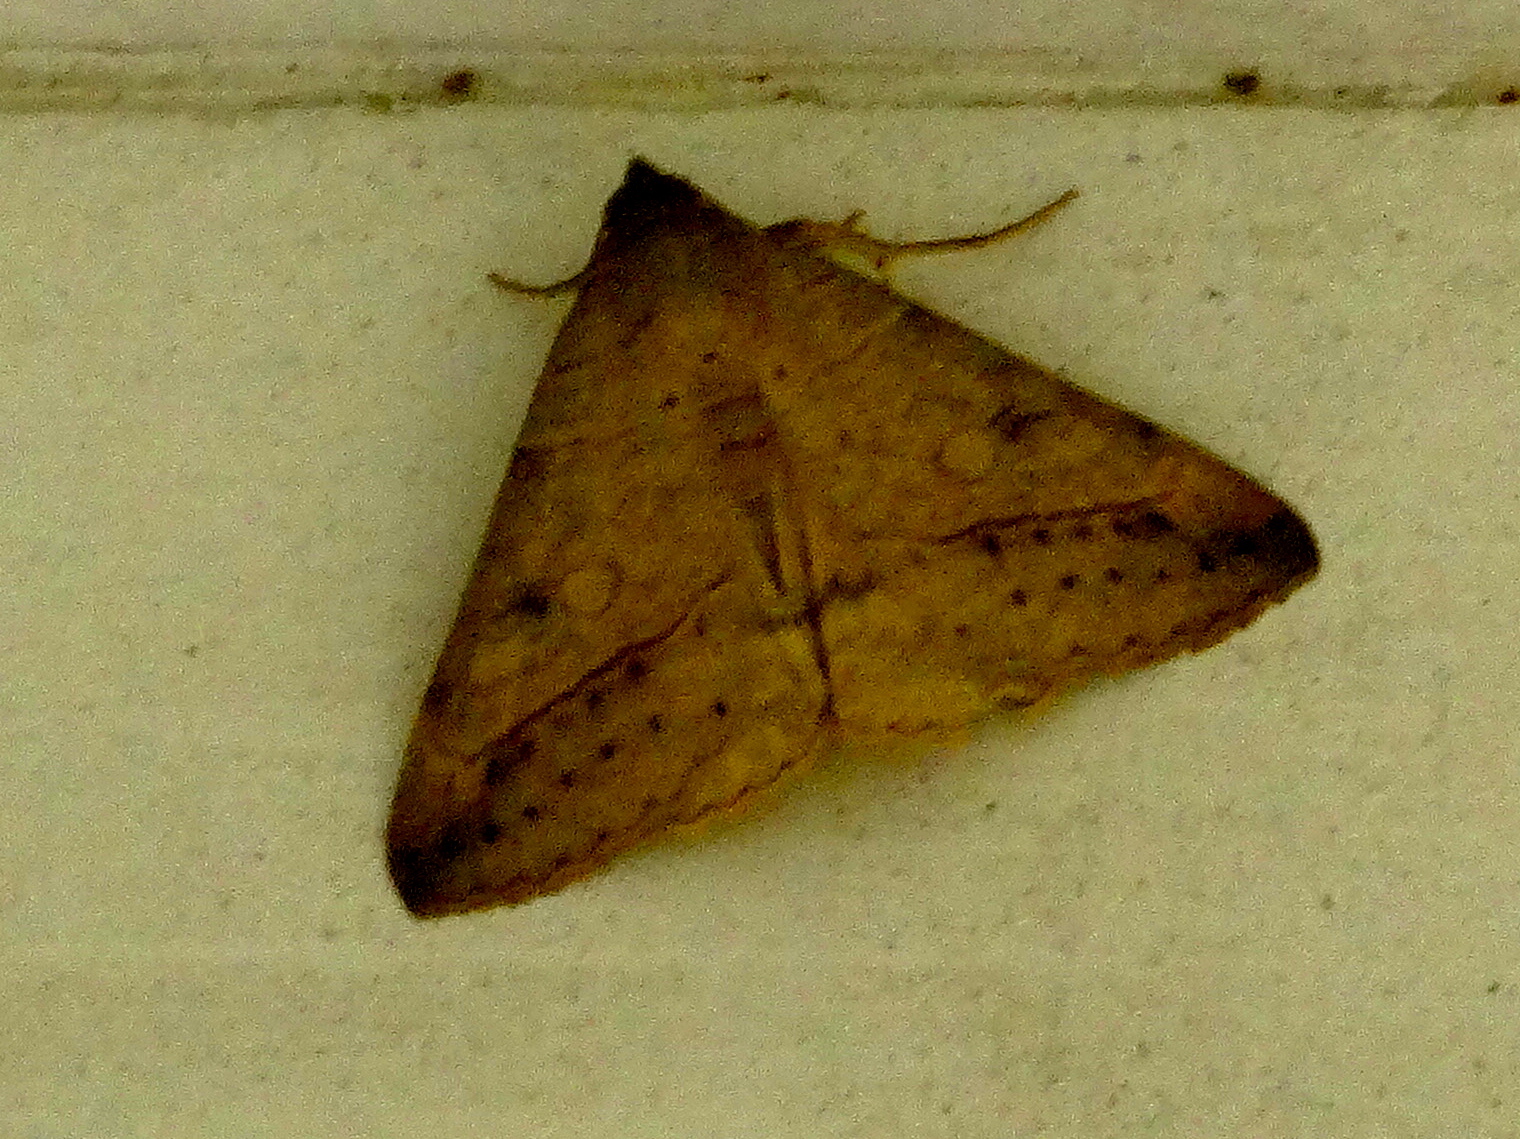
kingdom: Animalia
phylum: Arthropoda
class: Insecta
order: Lepidoptera
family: Erebidae
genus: Mocis
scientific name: Mocis
